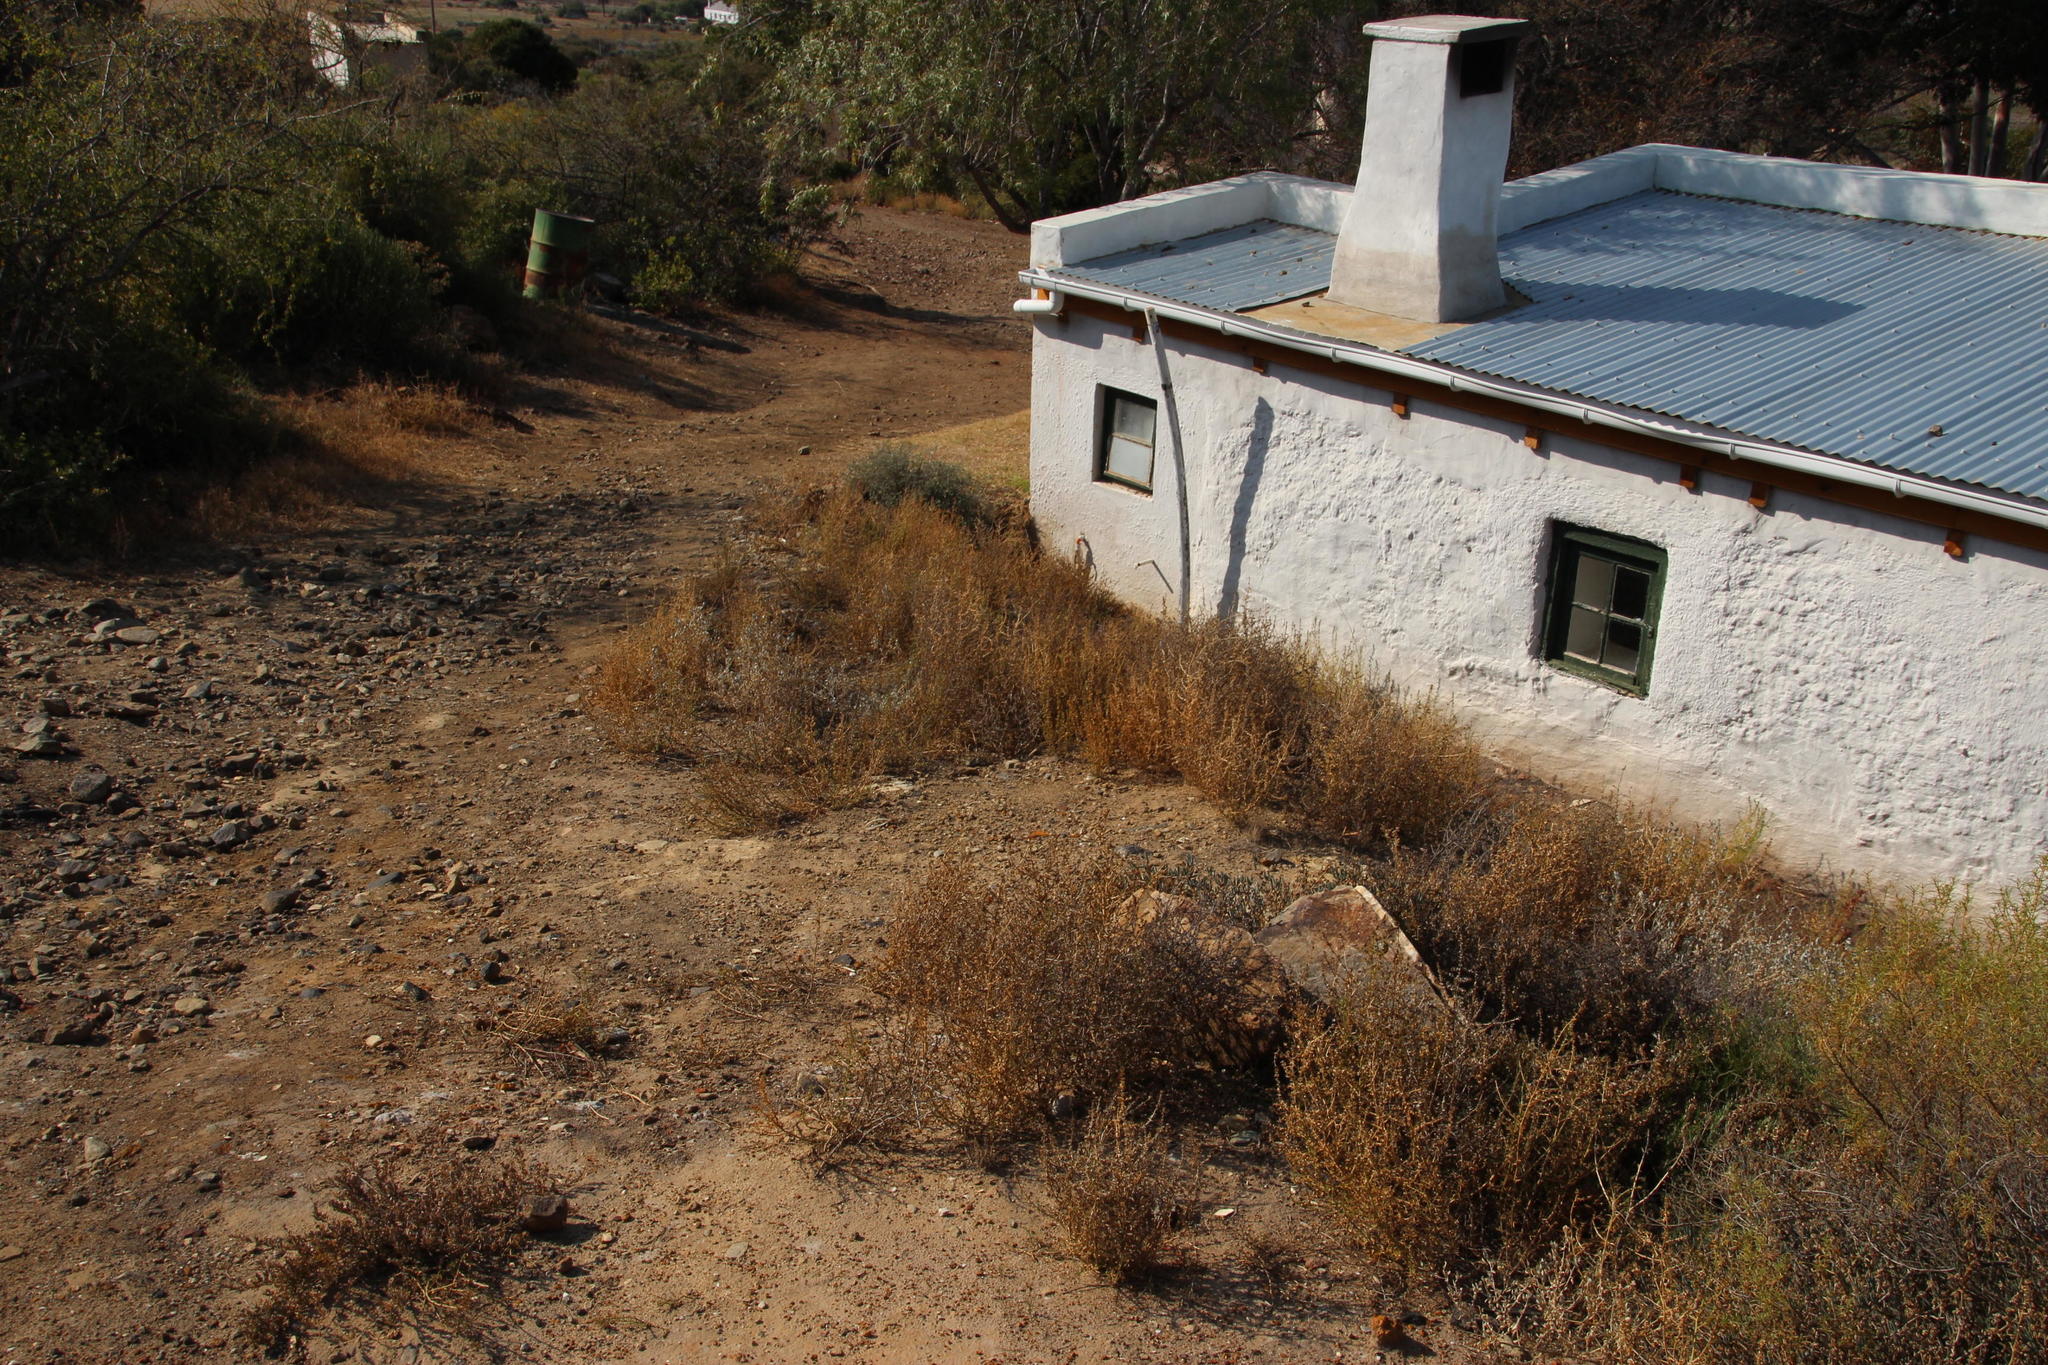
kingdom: Plantae
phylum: Tracheophyta
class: Magnoliopsida
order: Caryophyllales
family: Amaranthaceae
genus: Salsola
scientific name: Salsola kali
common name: Saltwort
